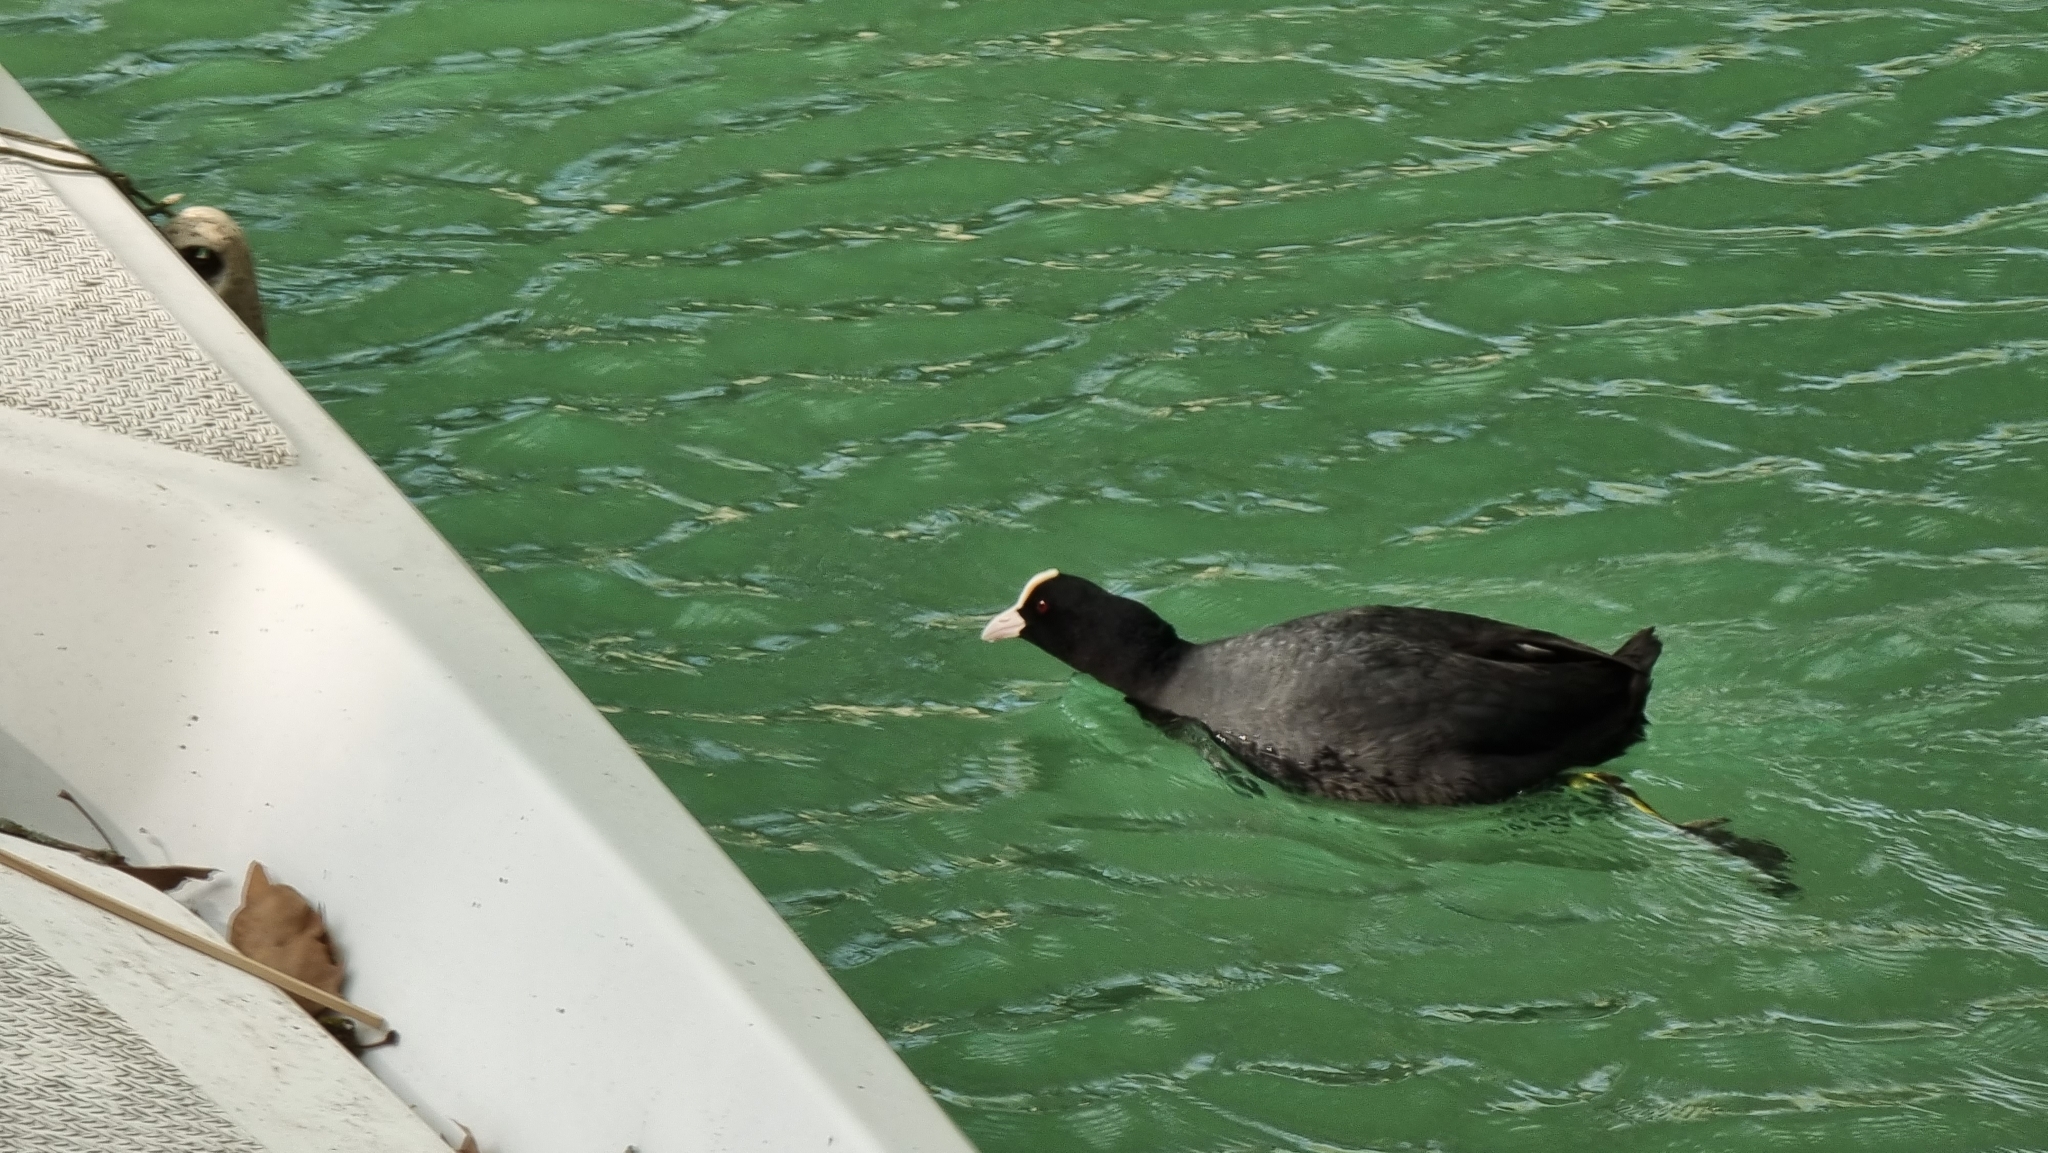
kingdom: Animalia
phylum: Chordata
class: Aves
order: Gruiformes
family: Rallidae
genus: Fulica
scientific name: Fulica atra
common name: Eurasian coot
